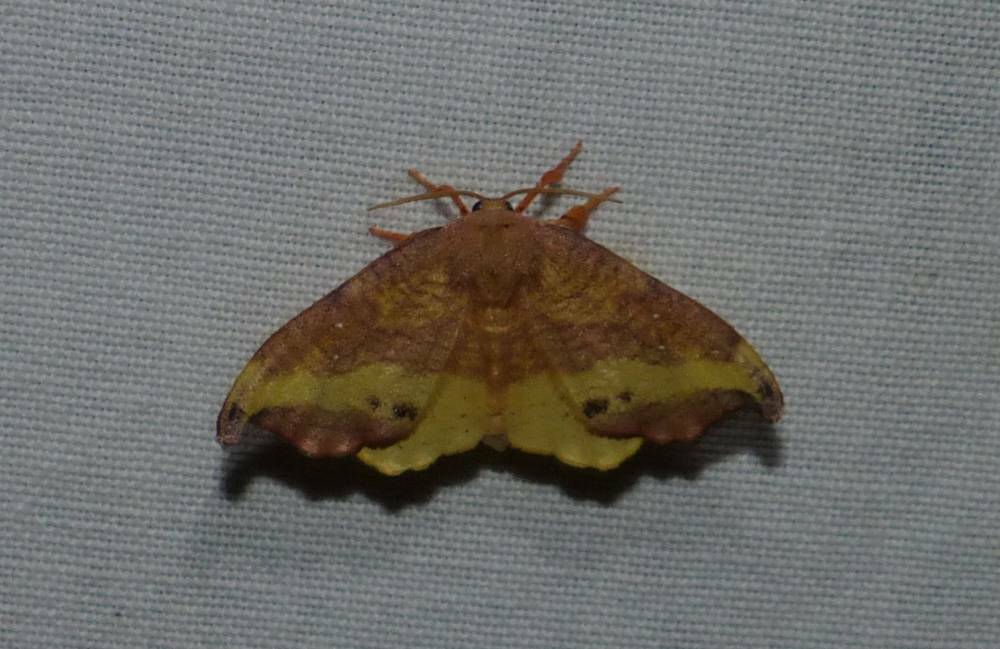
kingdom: Animalia
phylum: Arthropoda
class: Insecta
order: Lepidoptera
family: Drepanidae
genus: Oreta
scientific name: Oreta rosea
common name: Rose hooktip
